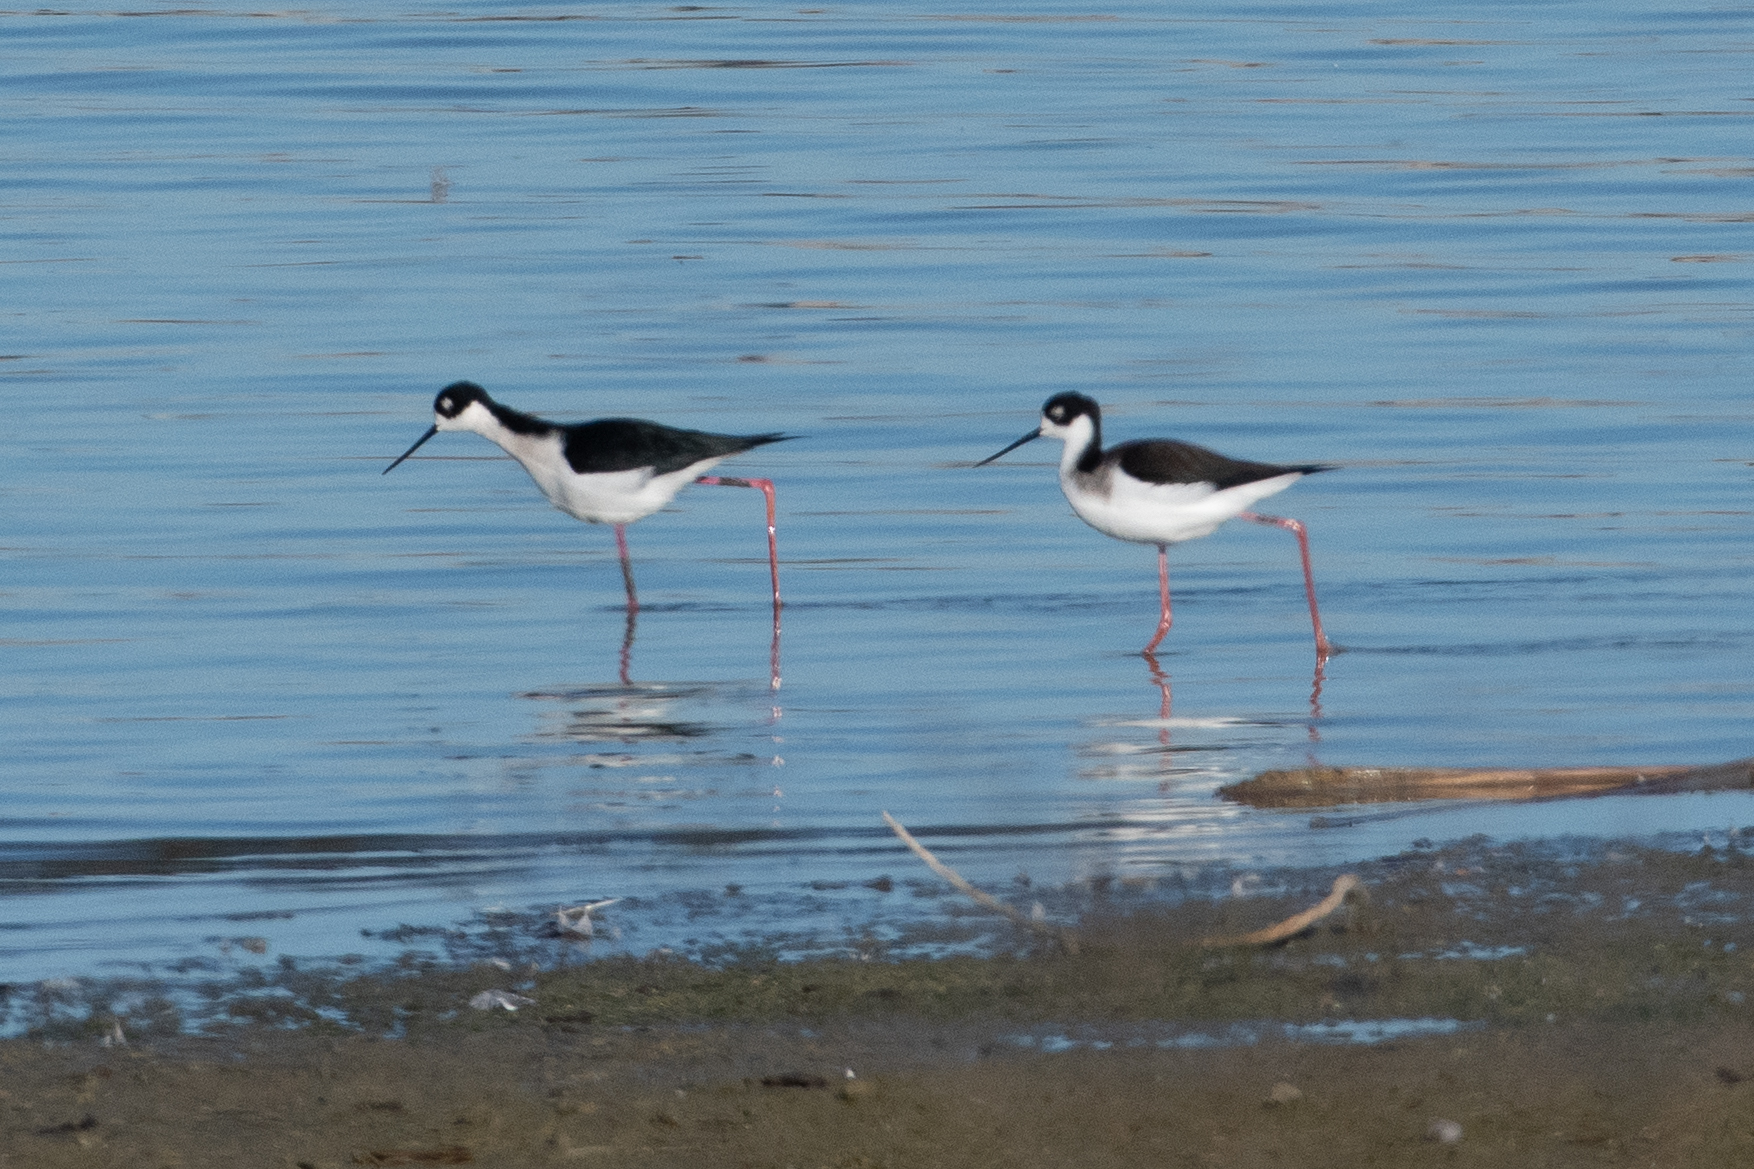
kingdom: Animalia
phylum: Chordata
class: Aves
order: Charadriiformes
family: Recurvirostridae
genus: Himantopus
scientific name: Himantopus mexicanus
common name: Black-necked stilt
